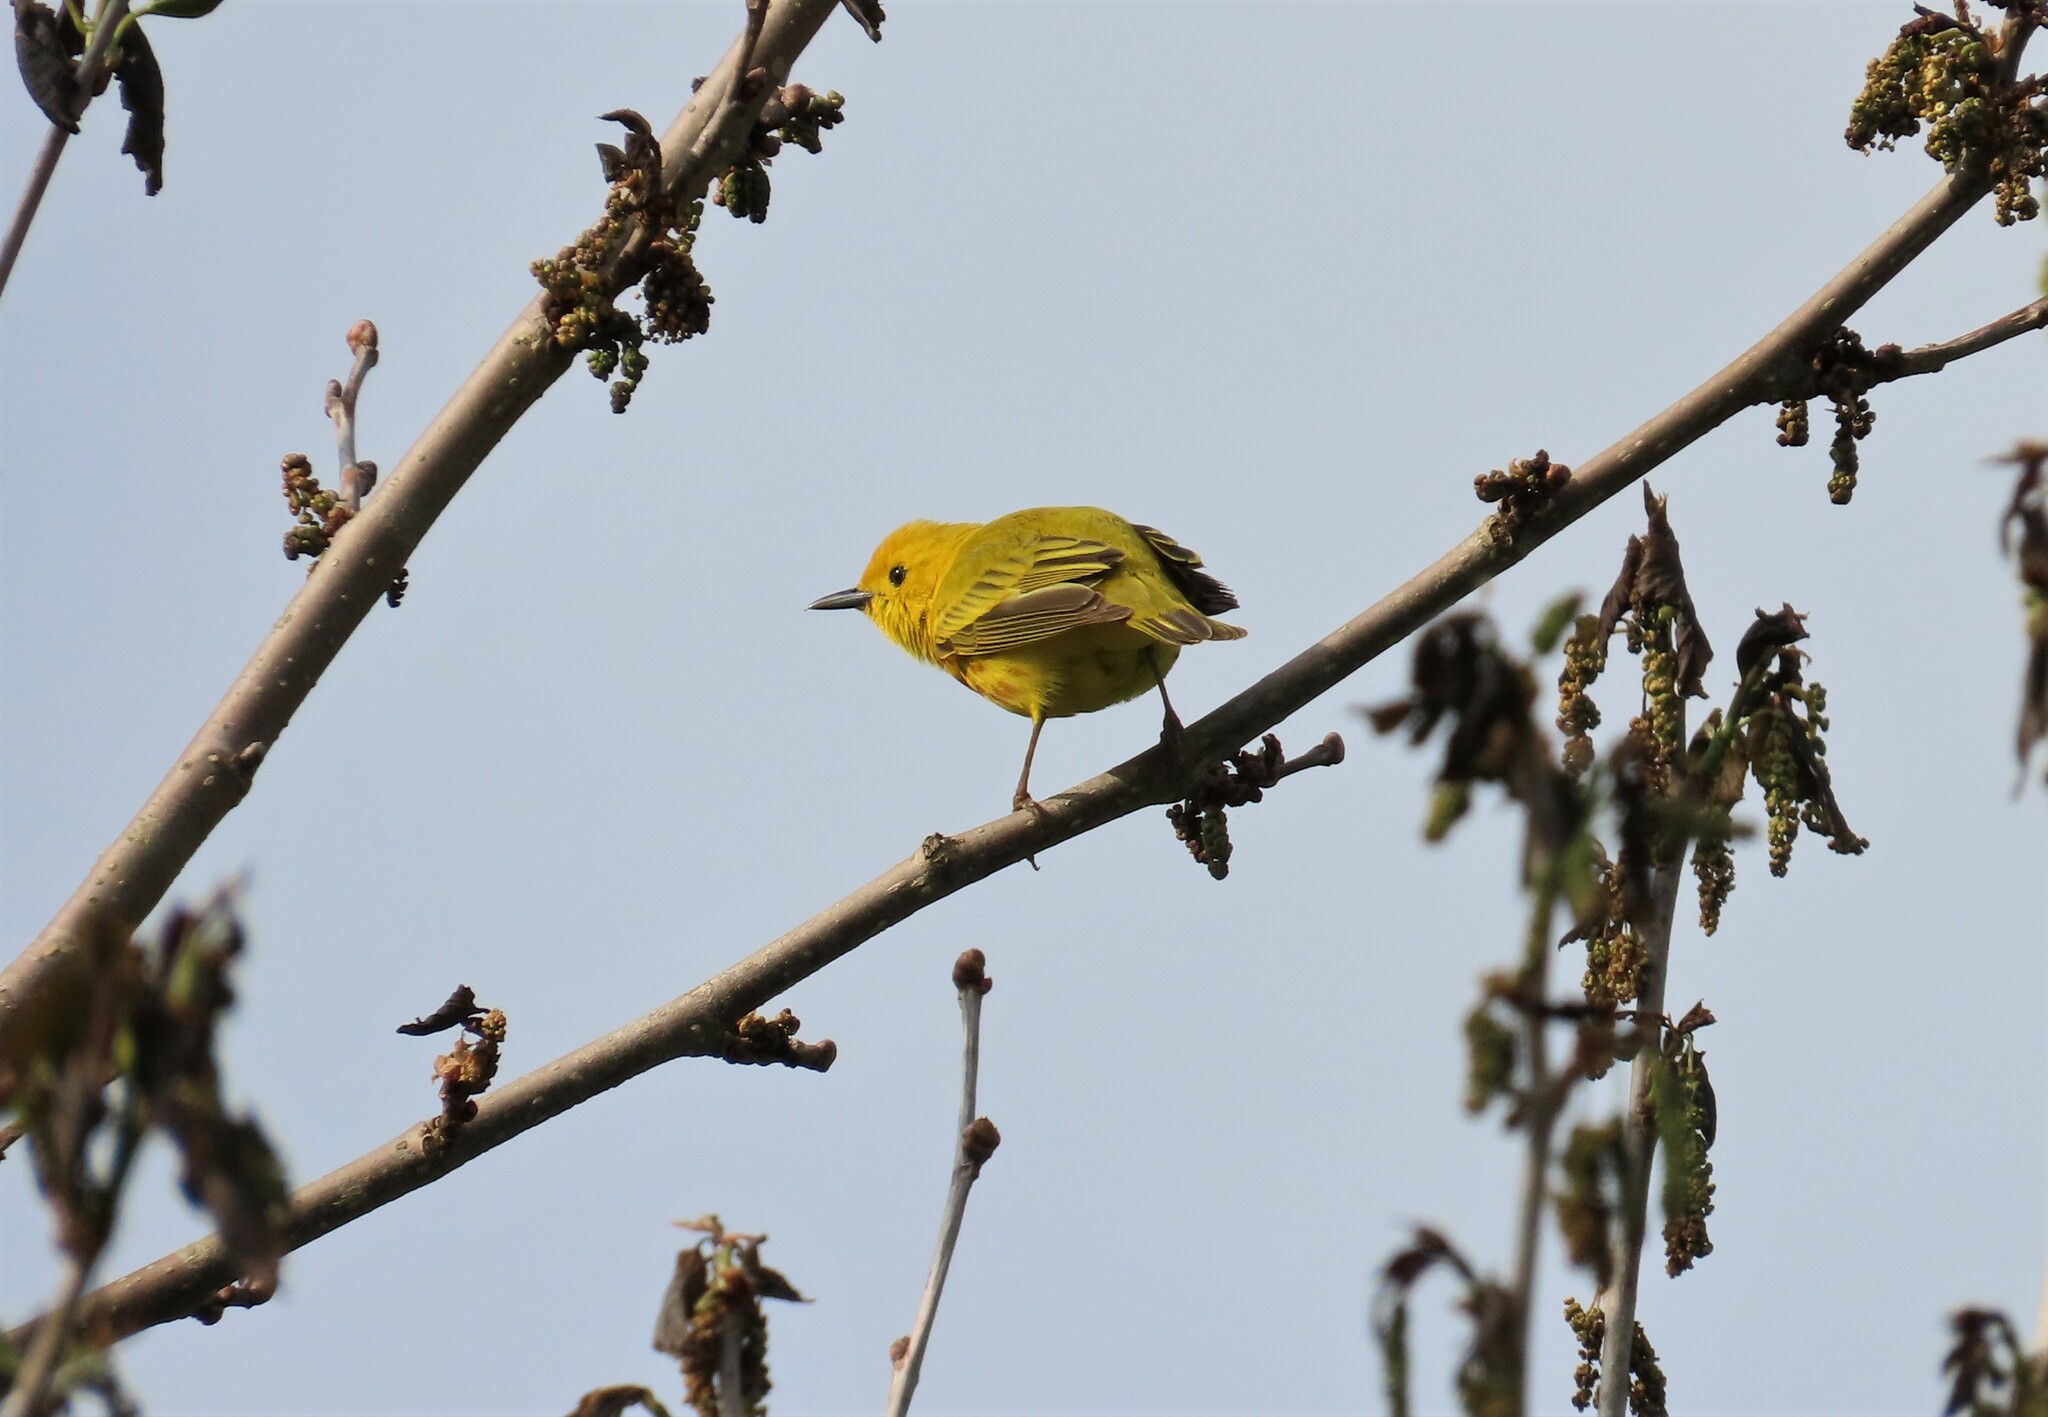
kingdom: Animalia
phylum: Chordata
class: Aves
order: Passeriformes
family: Parulidae
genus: Setophaga
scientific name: Setophaga petechia
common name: Yellow warbler
